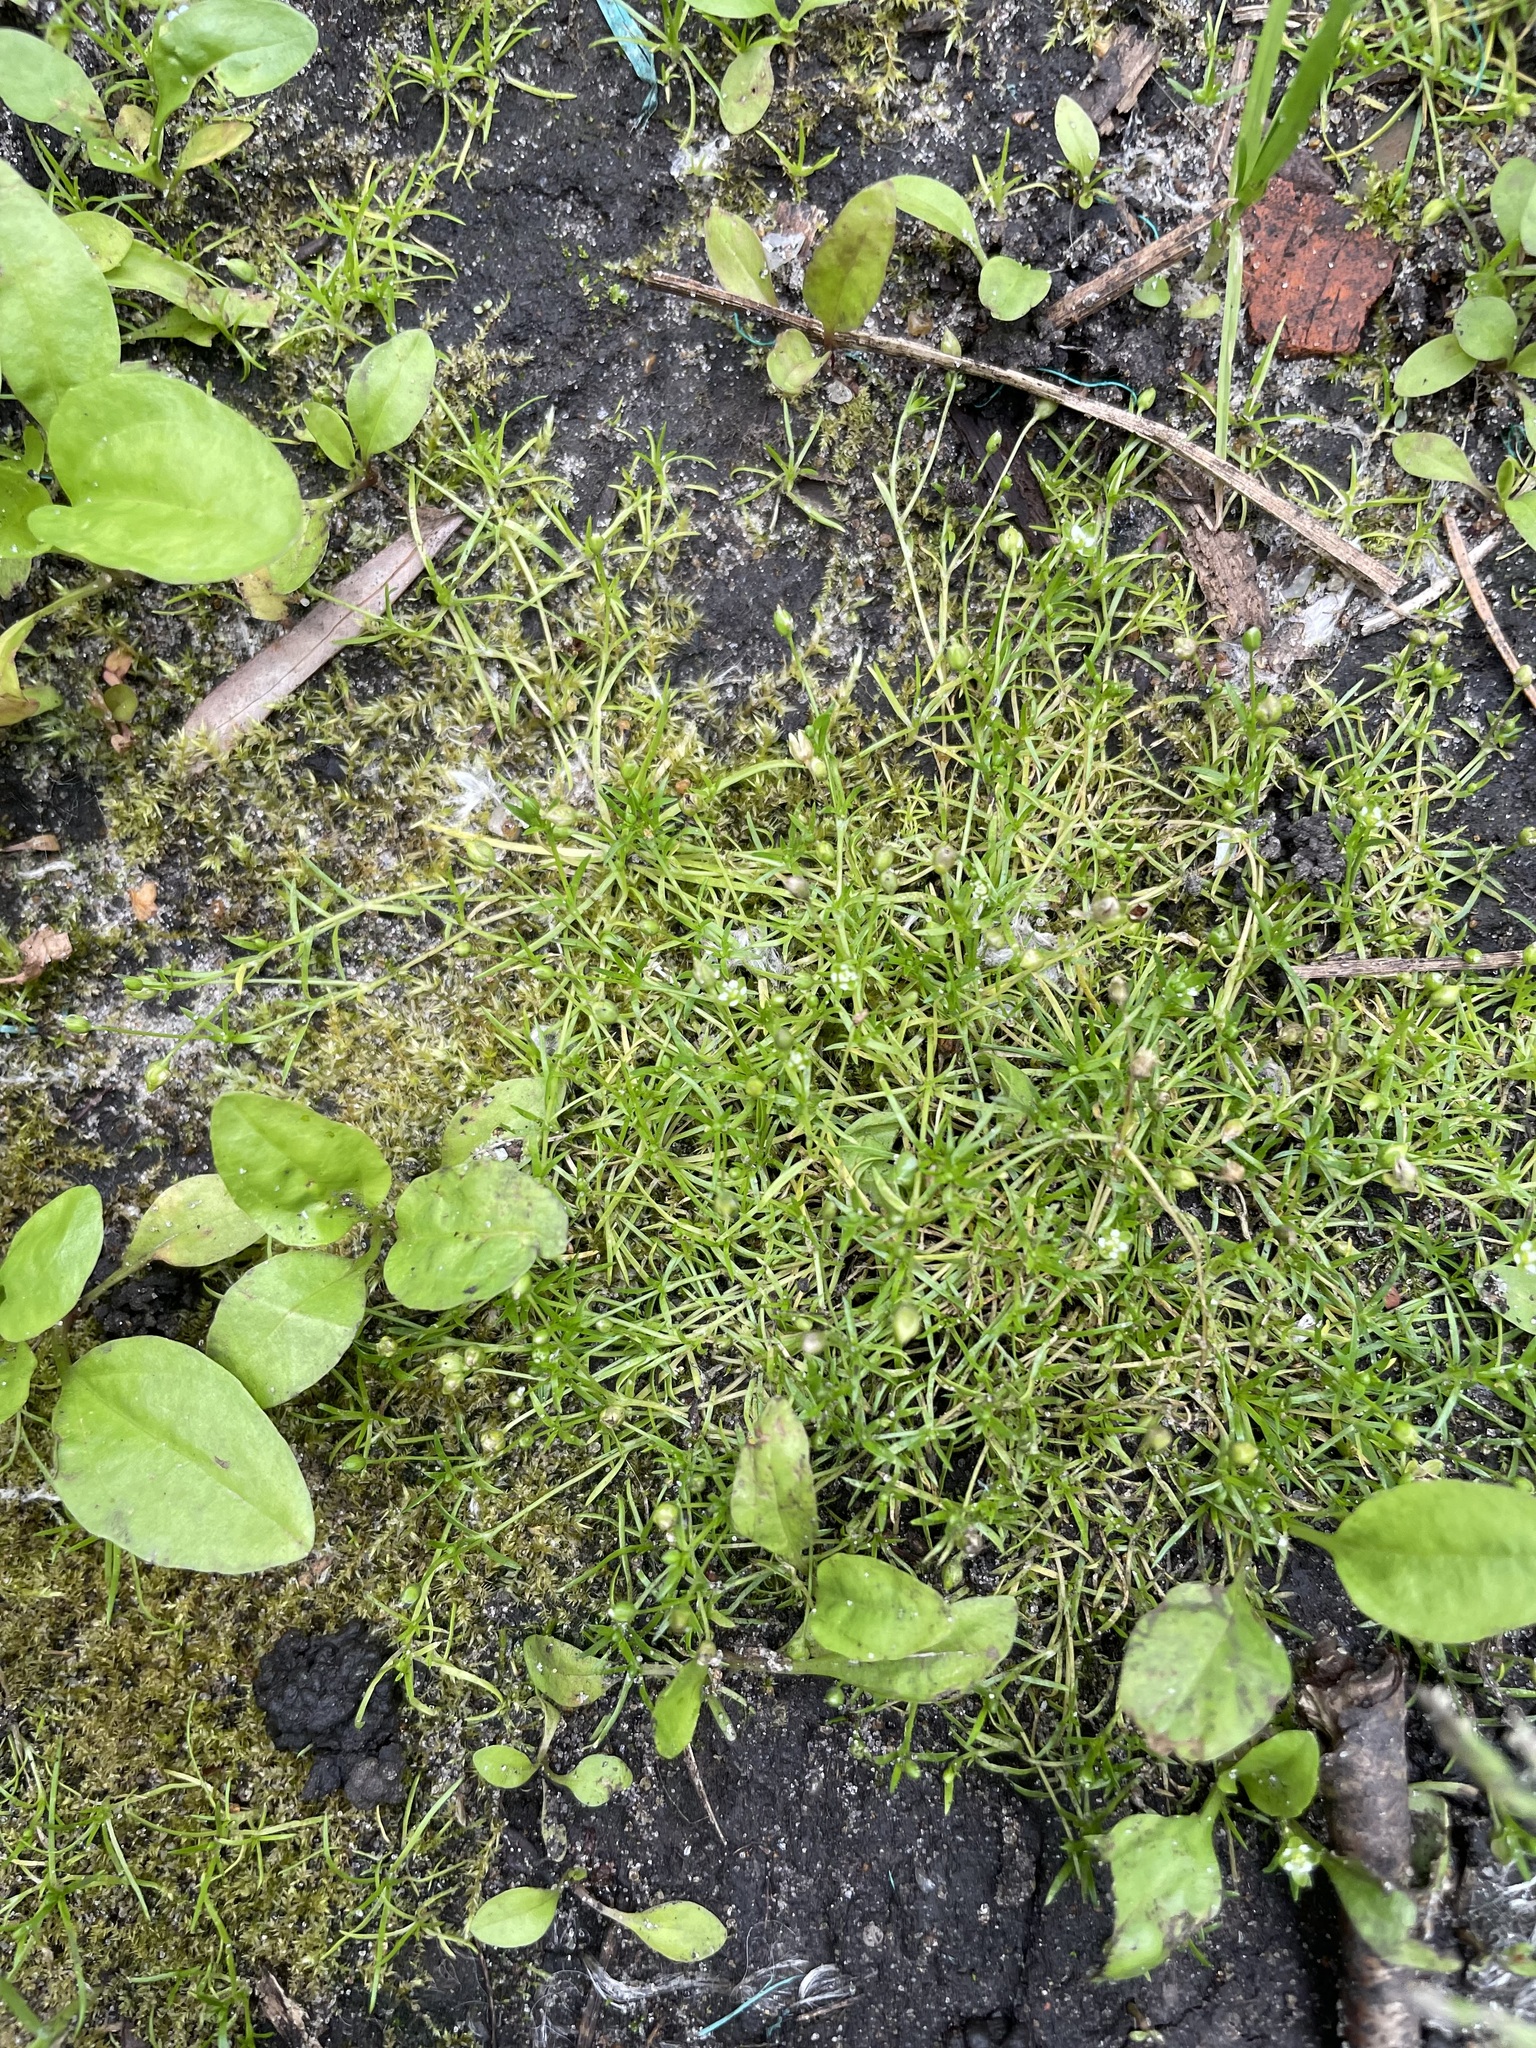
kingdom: Plantae
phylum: Tracheophyta
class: Magnoliopsida
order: Caryophyllales
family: Caryophyllaceae
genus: Sagina
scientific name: Sagina procumbens
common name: Procumbent pearlwort
